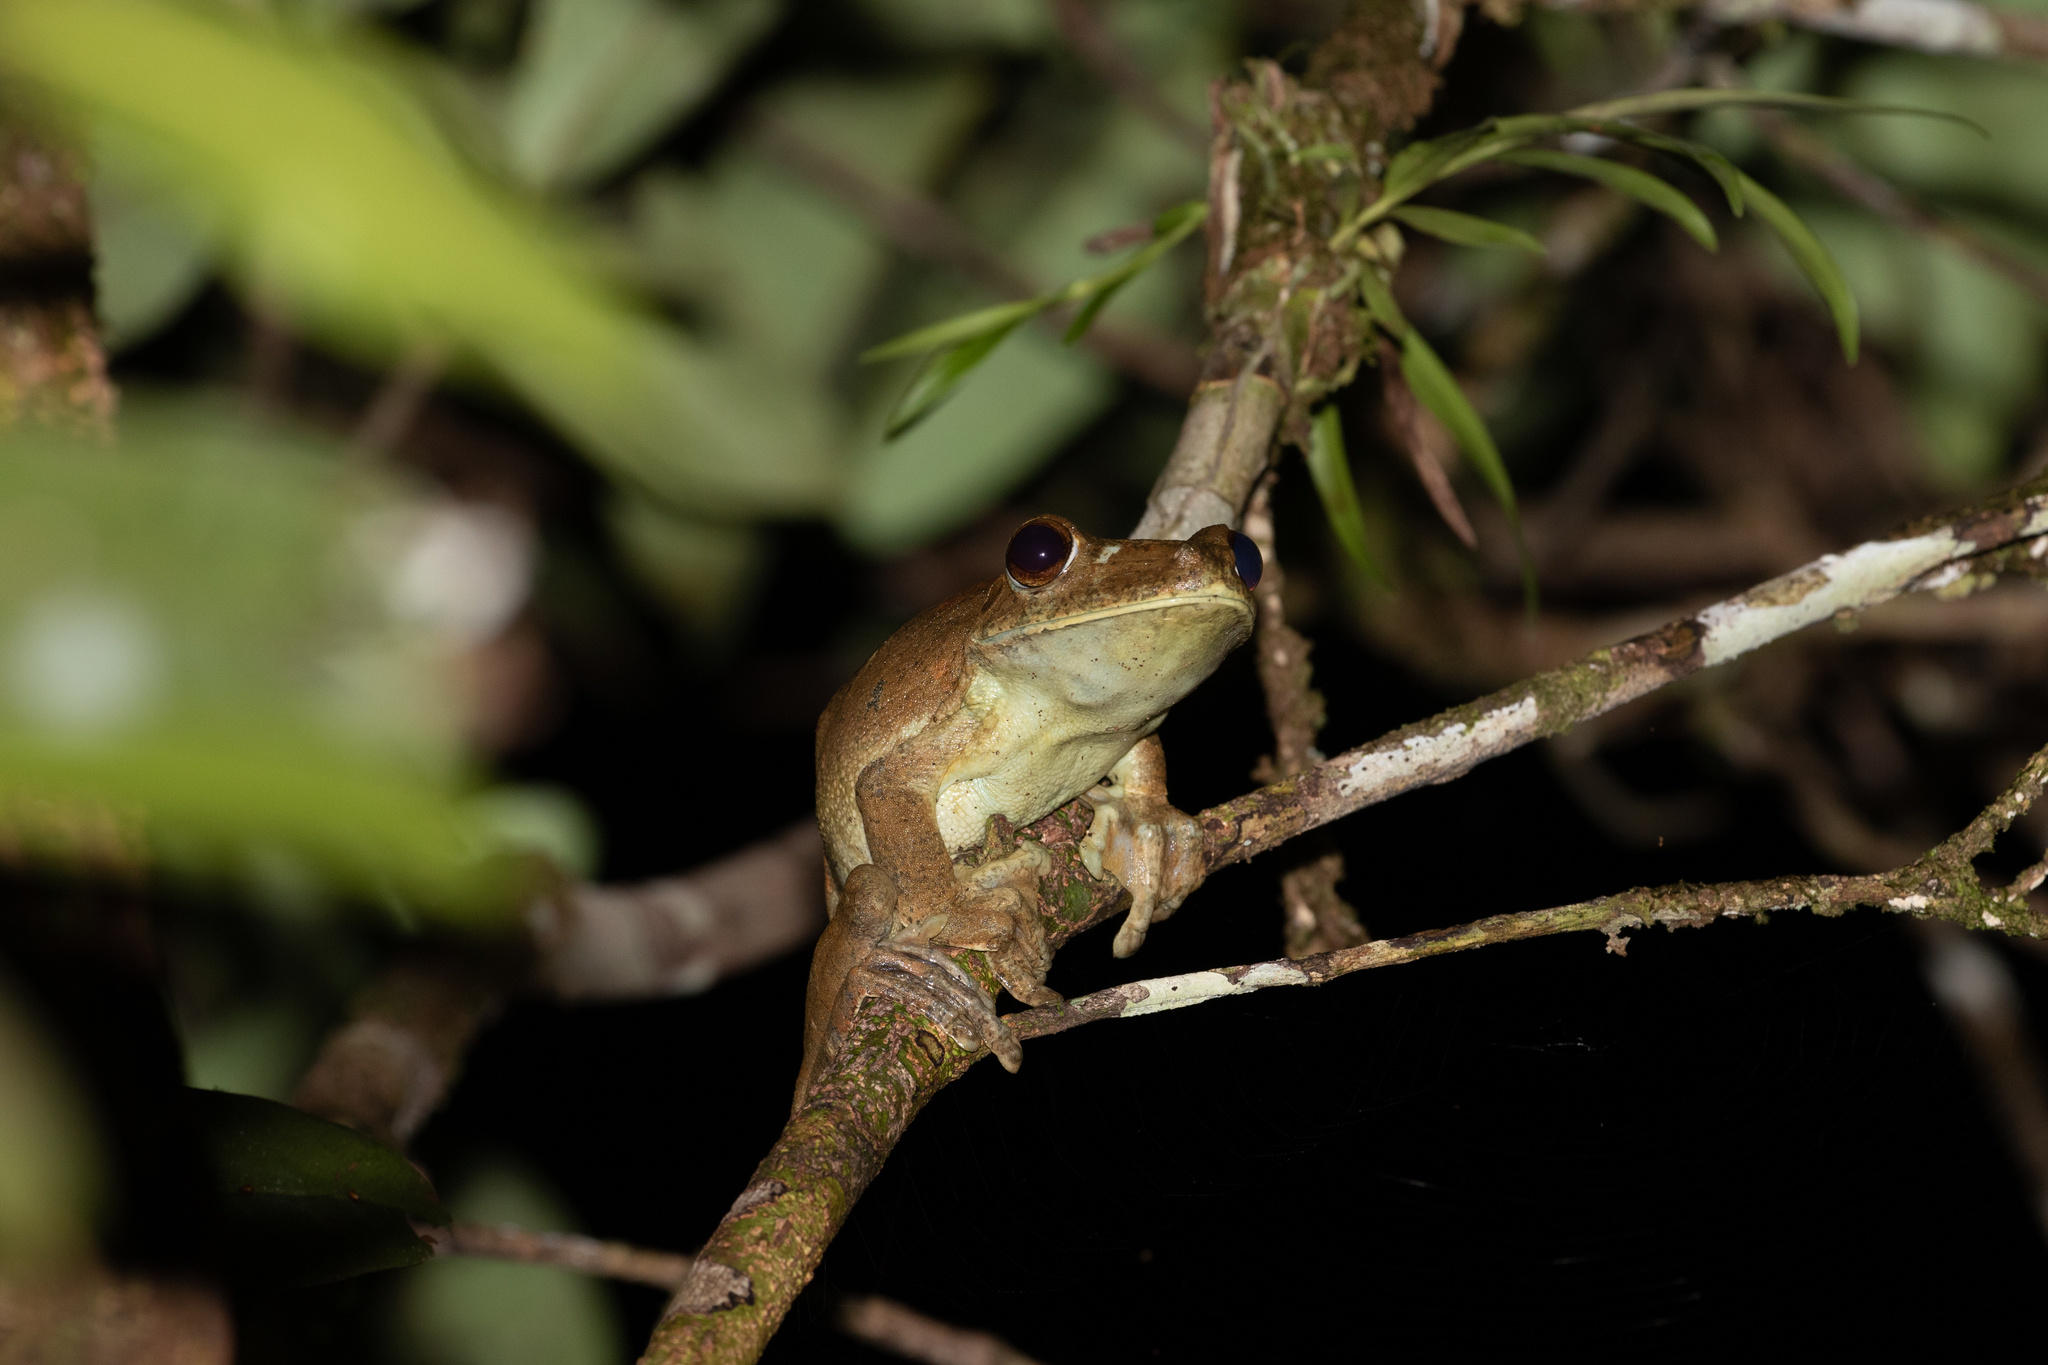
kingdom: Animalia
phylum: Chordata
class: Amphibia
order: Anura
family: Hylidae
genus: Boana
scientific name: Boana boans
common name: Giant gladiator treefrog
